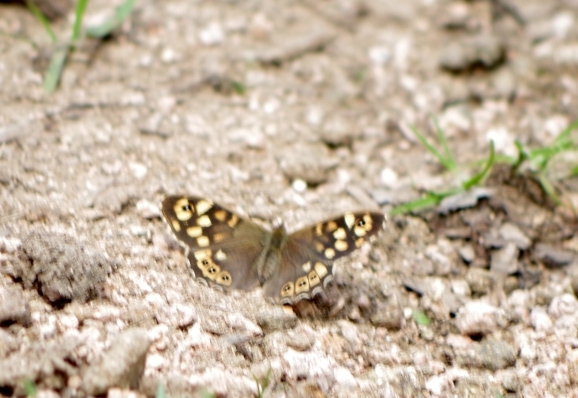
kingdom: Animalia
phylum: Arthropoda
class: Insecta
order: Lepidoptera
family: Nymphalidae
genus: Pararge
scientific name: Pararge aegeria
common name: Speckled wood
